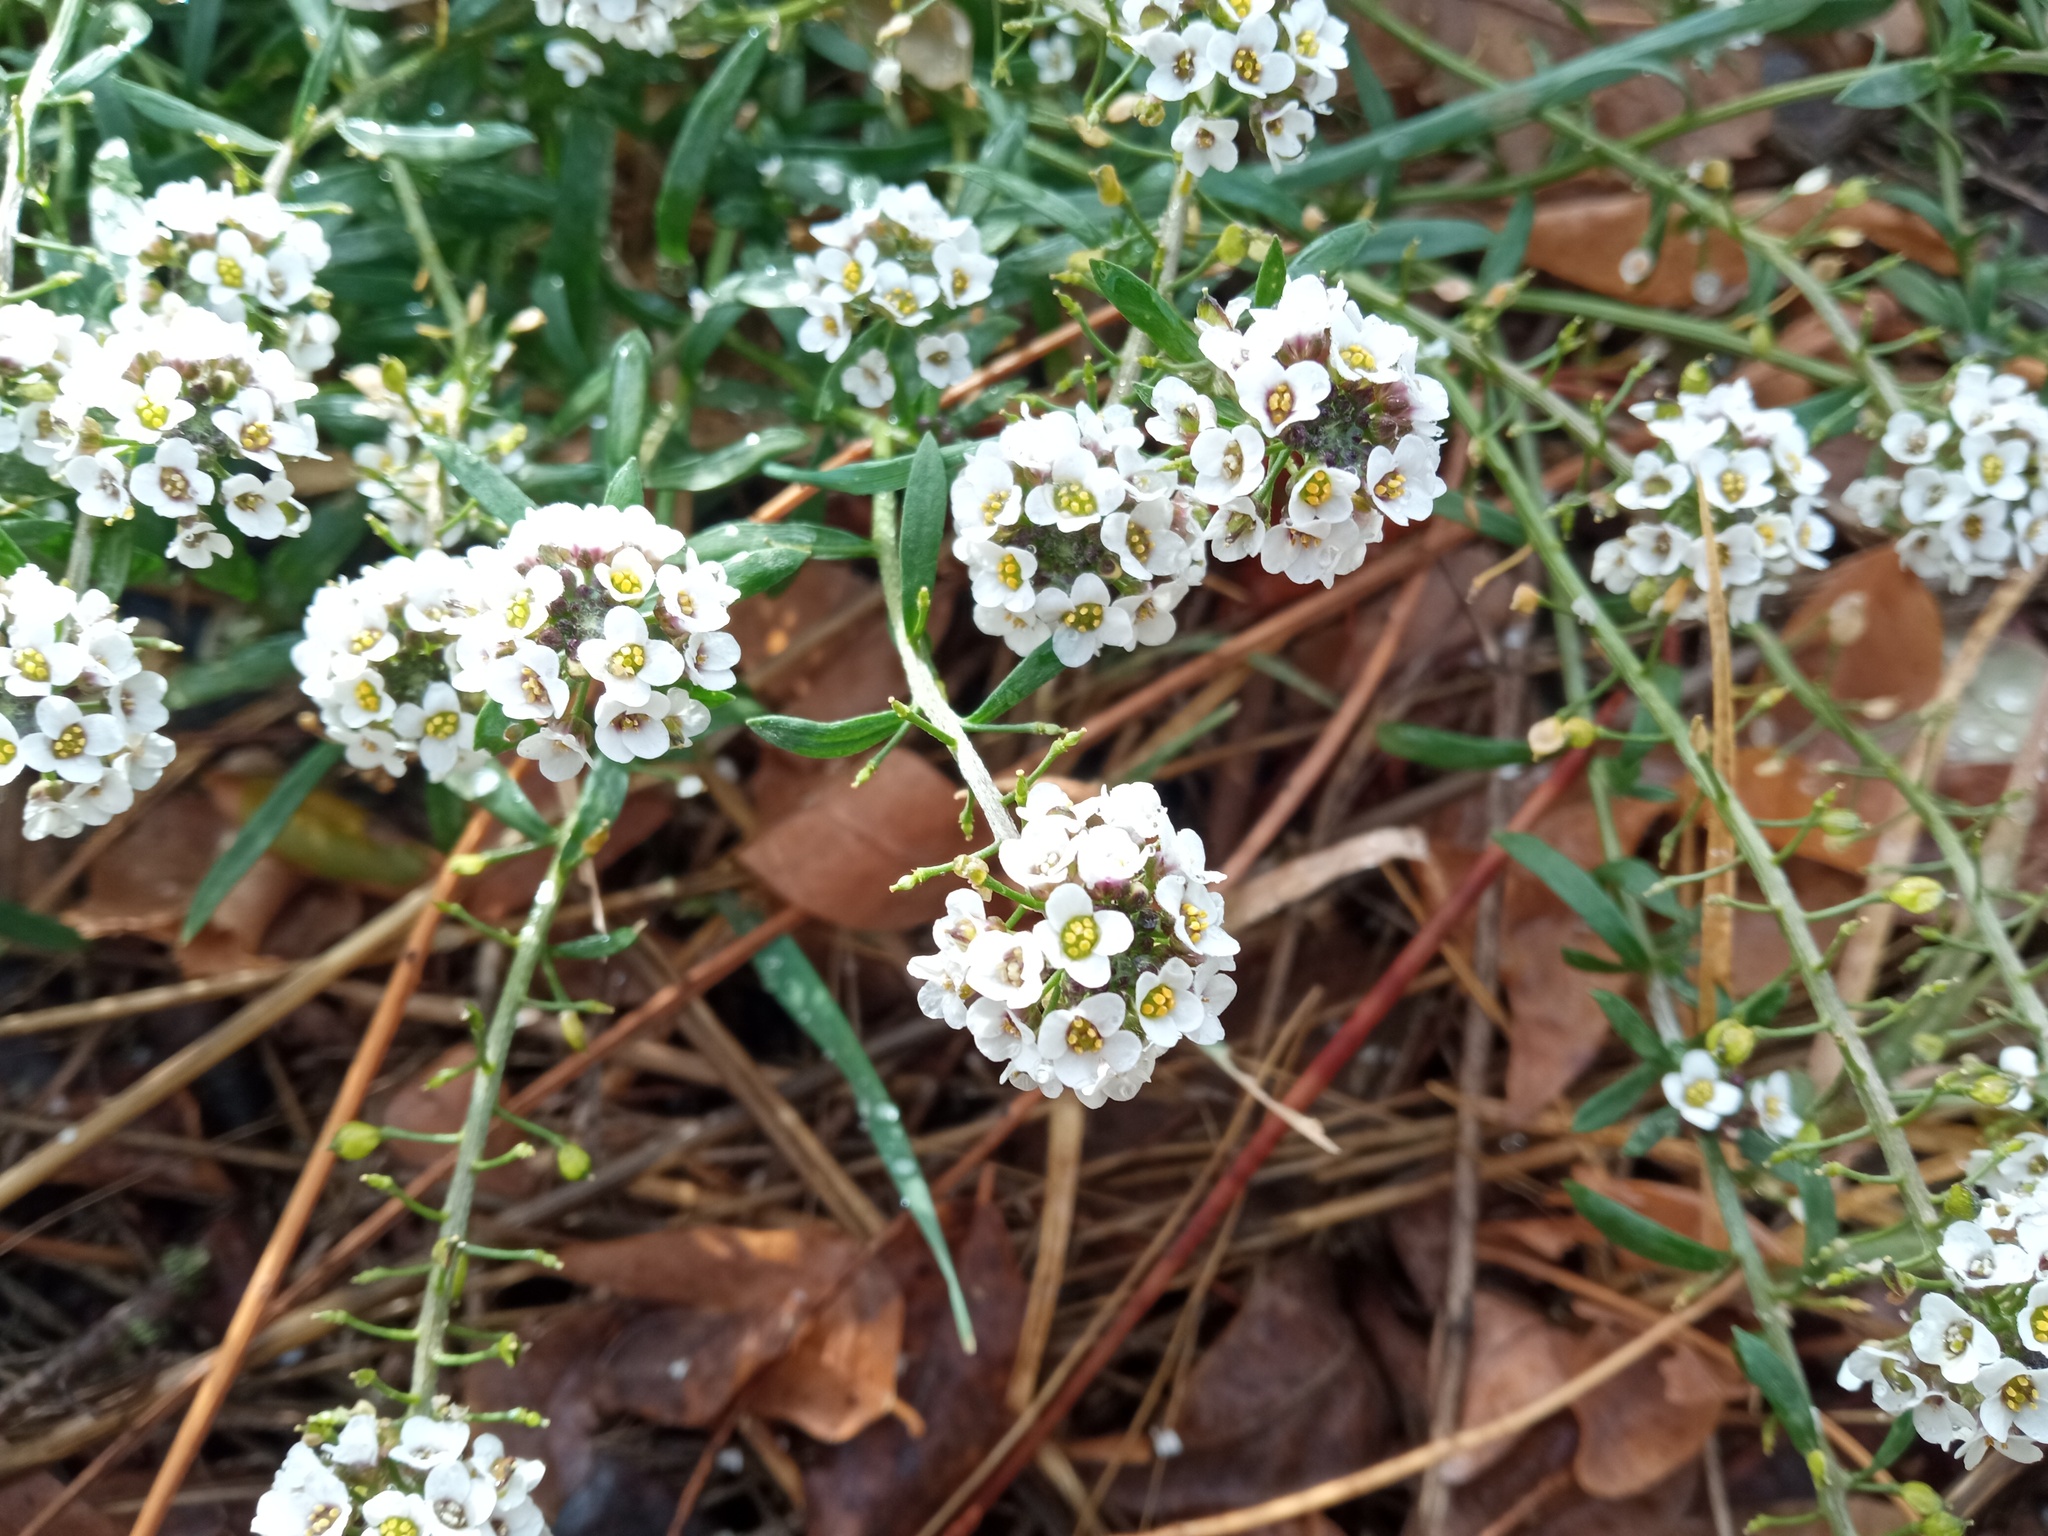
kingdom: Plantae
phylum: Tracheophyta
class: Magnoliopsida
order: Brassicales
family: Brassicaceae
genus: Lobularia
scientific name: Lobularia maritima
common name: Sweet alison
